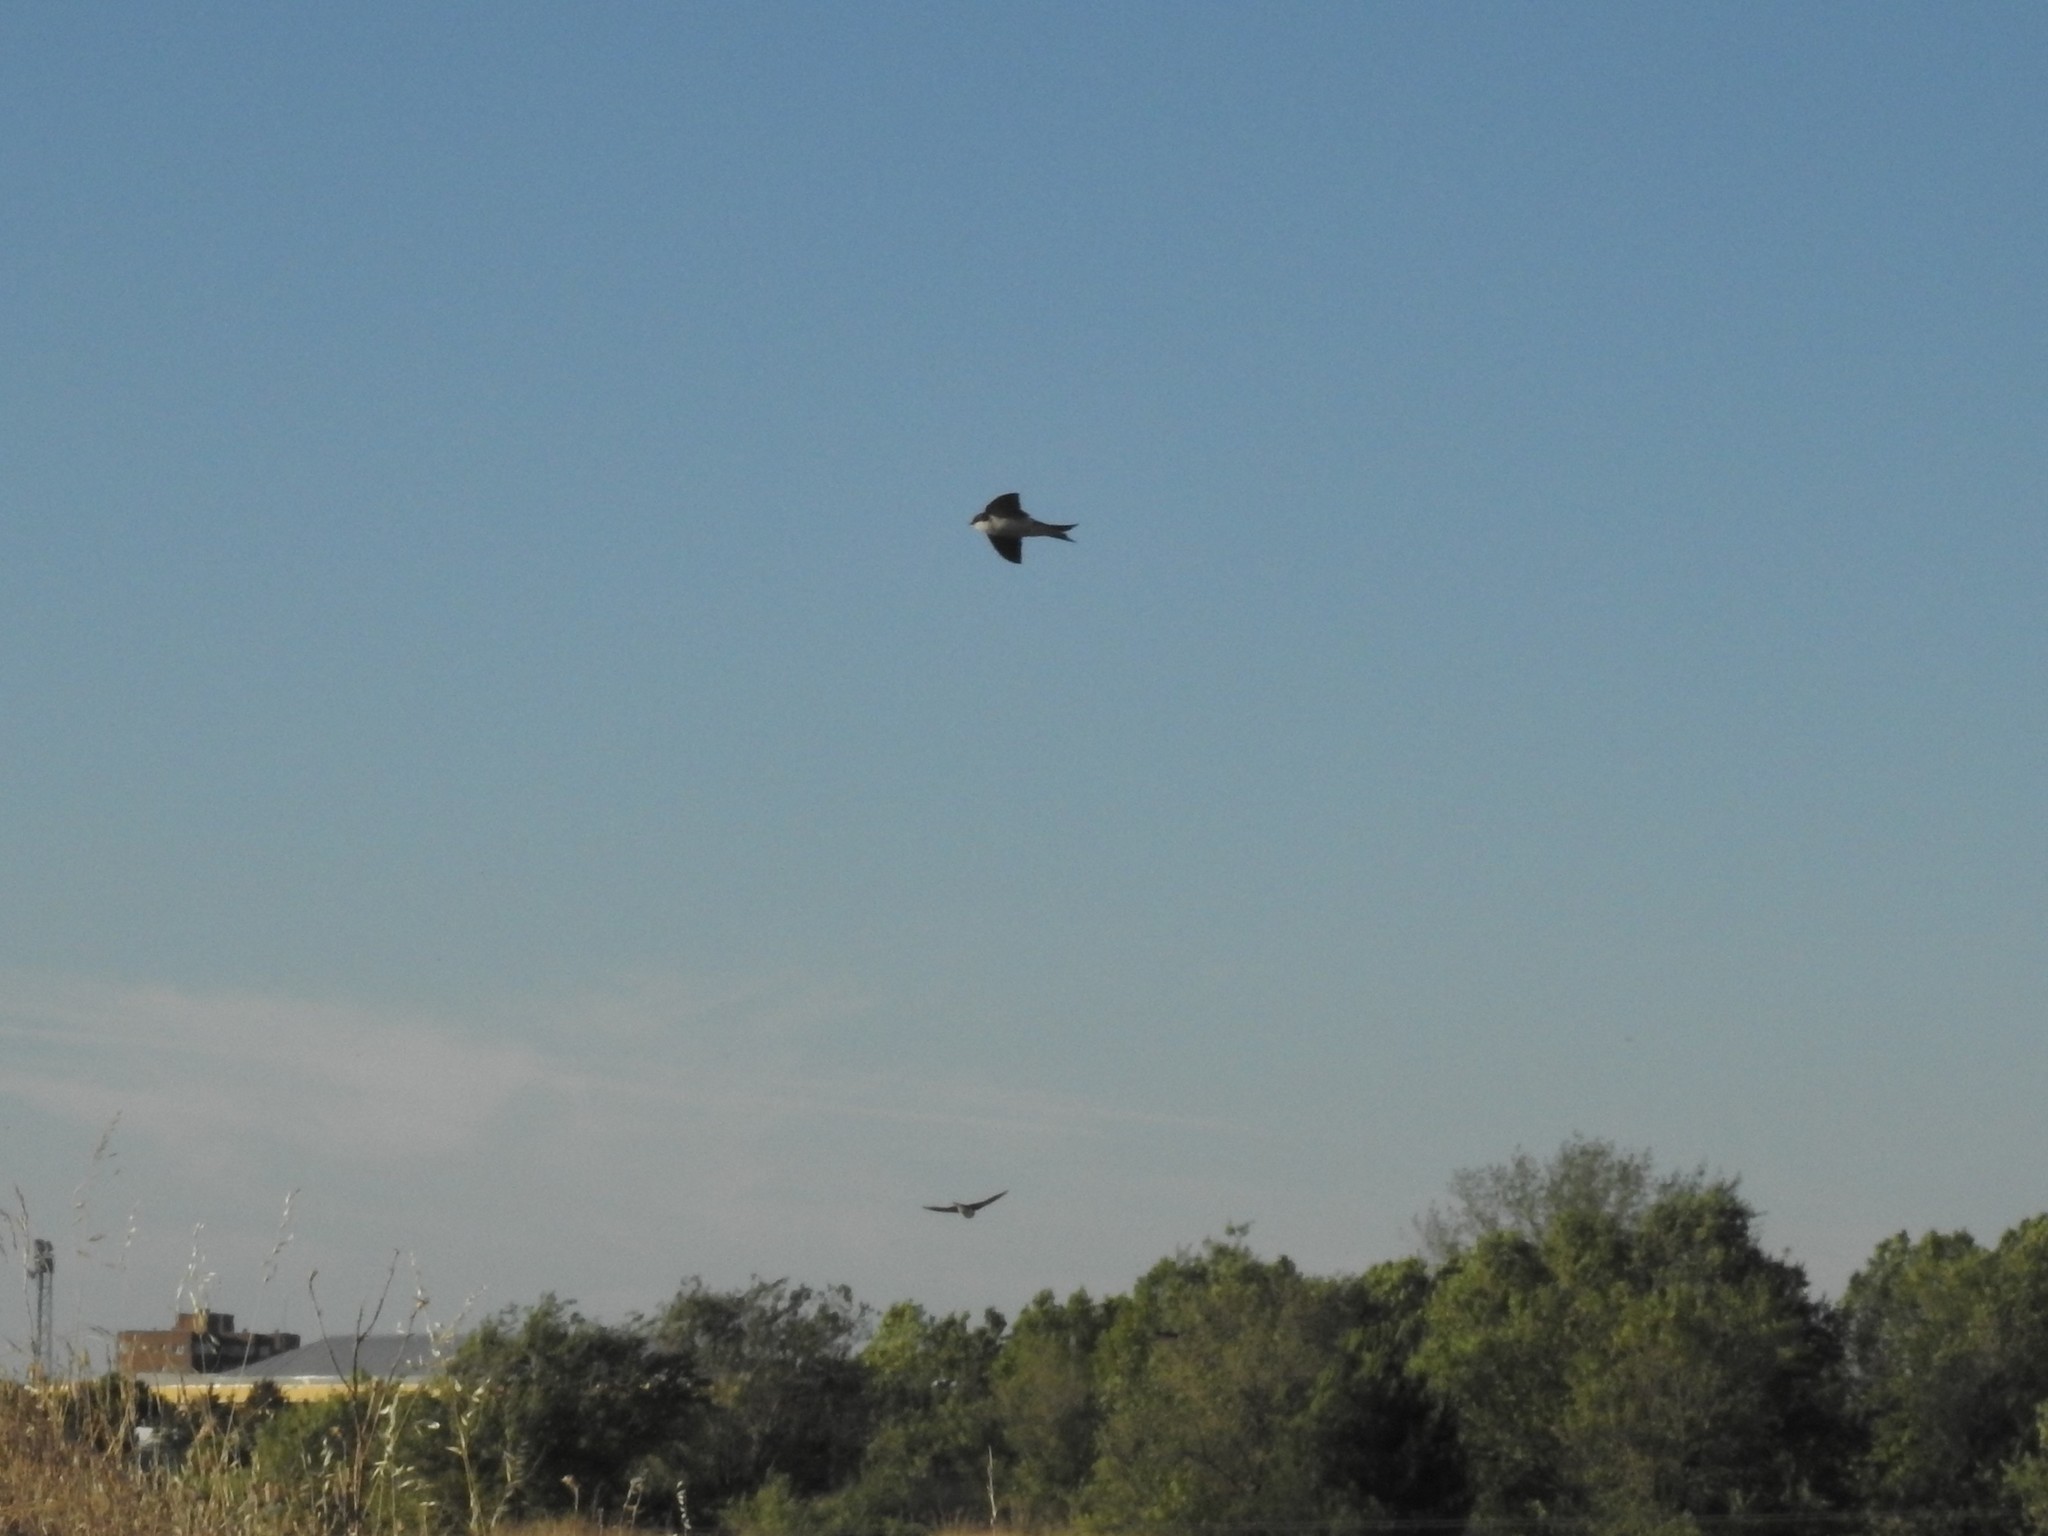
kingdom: Animalia
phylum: Chordata
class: Aves
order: Passeriformes
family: Hirundinidae
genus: Delichon
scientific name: Delichon urbicum
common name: Common house martin
